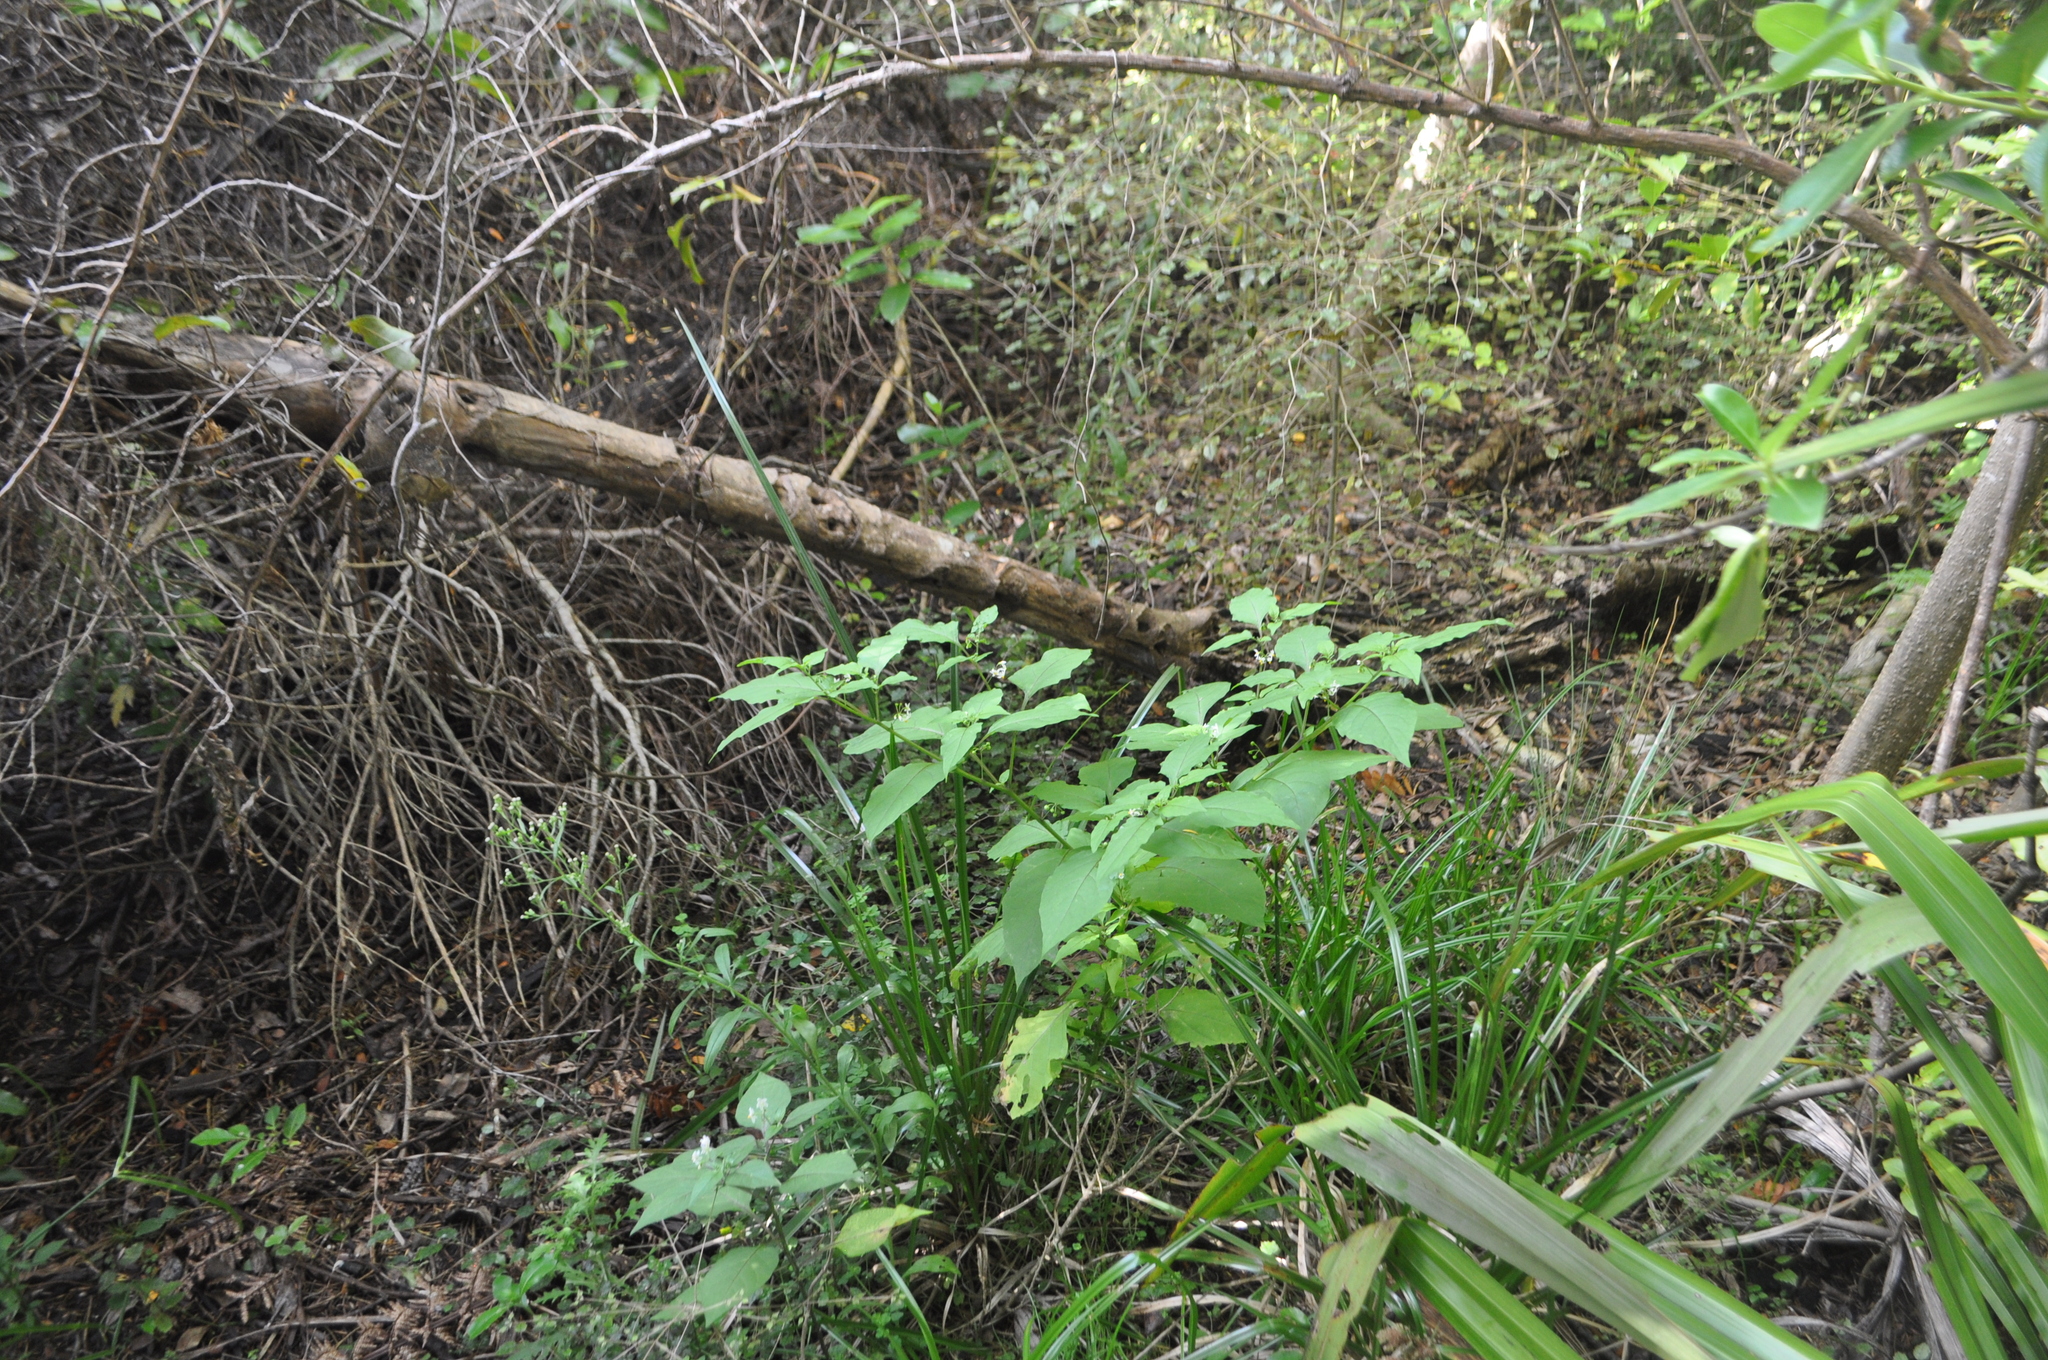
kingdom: Plantae
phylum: Tracheophyta
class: Magnoliopsida
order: Solanales
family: Solanaceae
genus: Solanum
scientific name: Solanum
